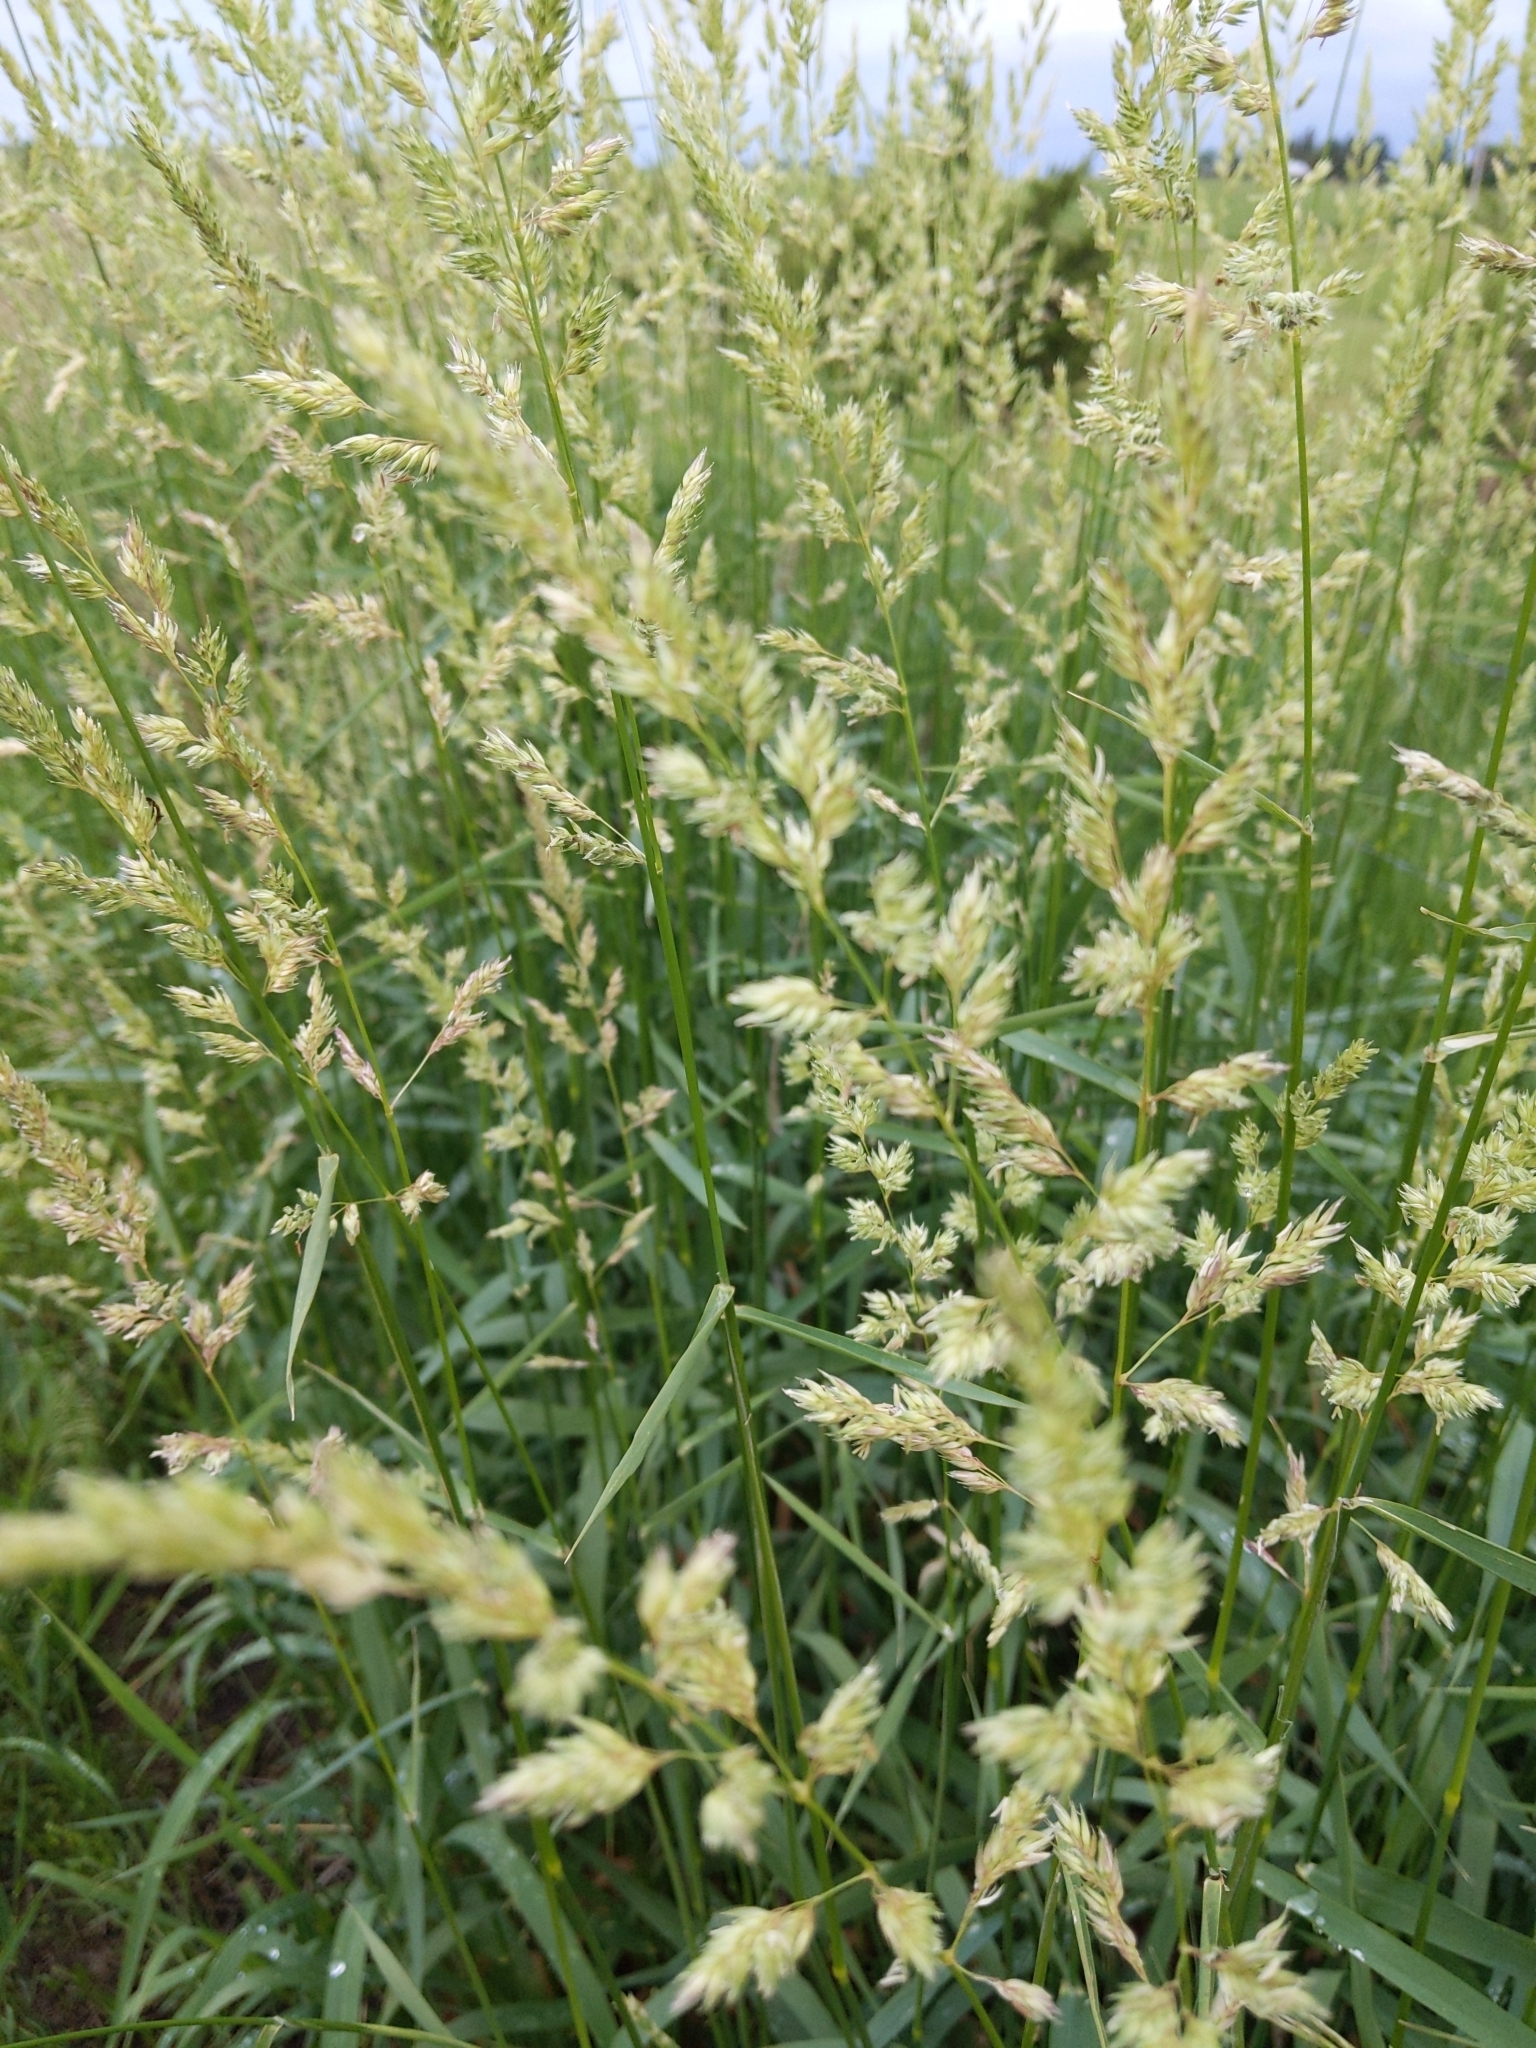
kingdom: Plantae
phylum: Tracheophyta
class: Liliopsida
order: Poales
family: Poaceae
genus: Phalaris
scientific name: Phalaris arundinacea
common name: Reed canary-grass
